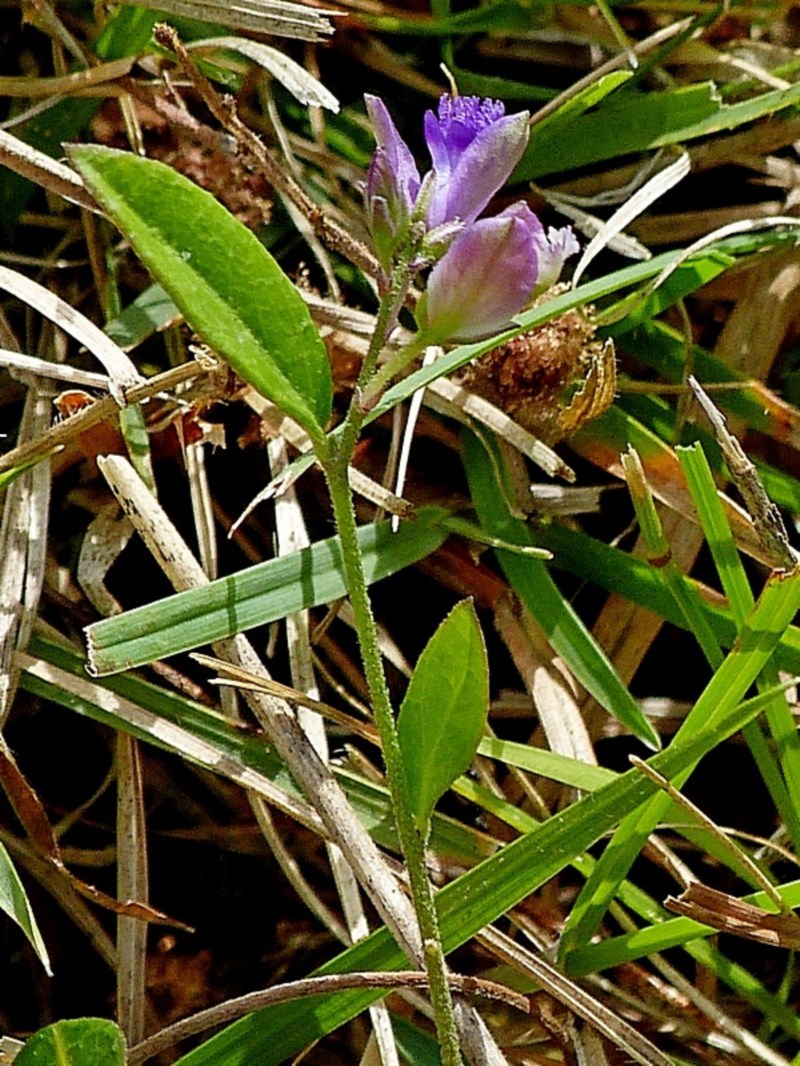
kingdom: Plantae
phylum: Tracheophyta
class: Magnoliopsida
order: Fabales
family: Polygalaceae
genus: Polygala
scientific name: Polygala japonica
